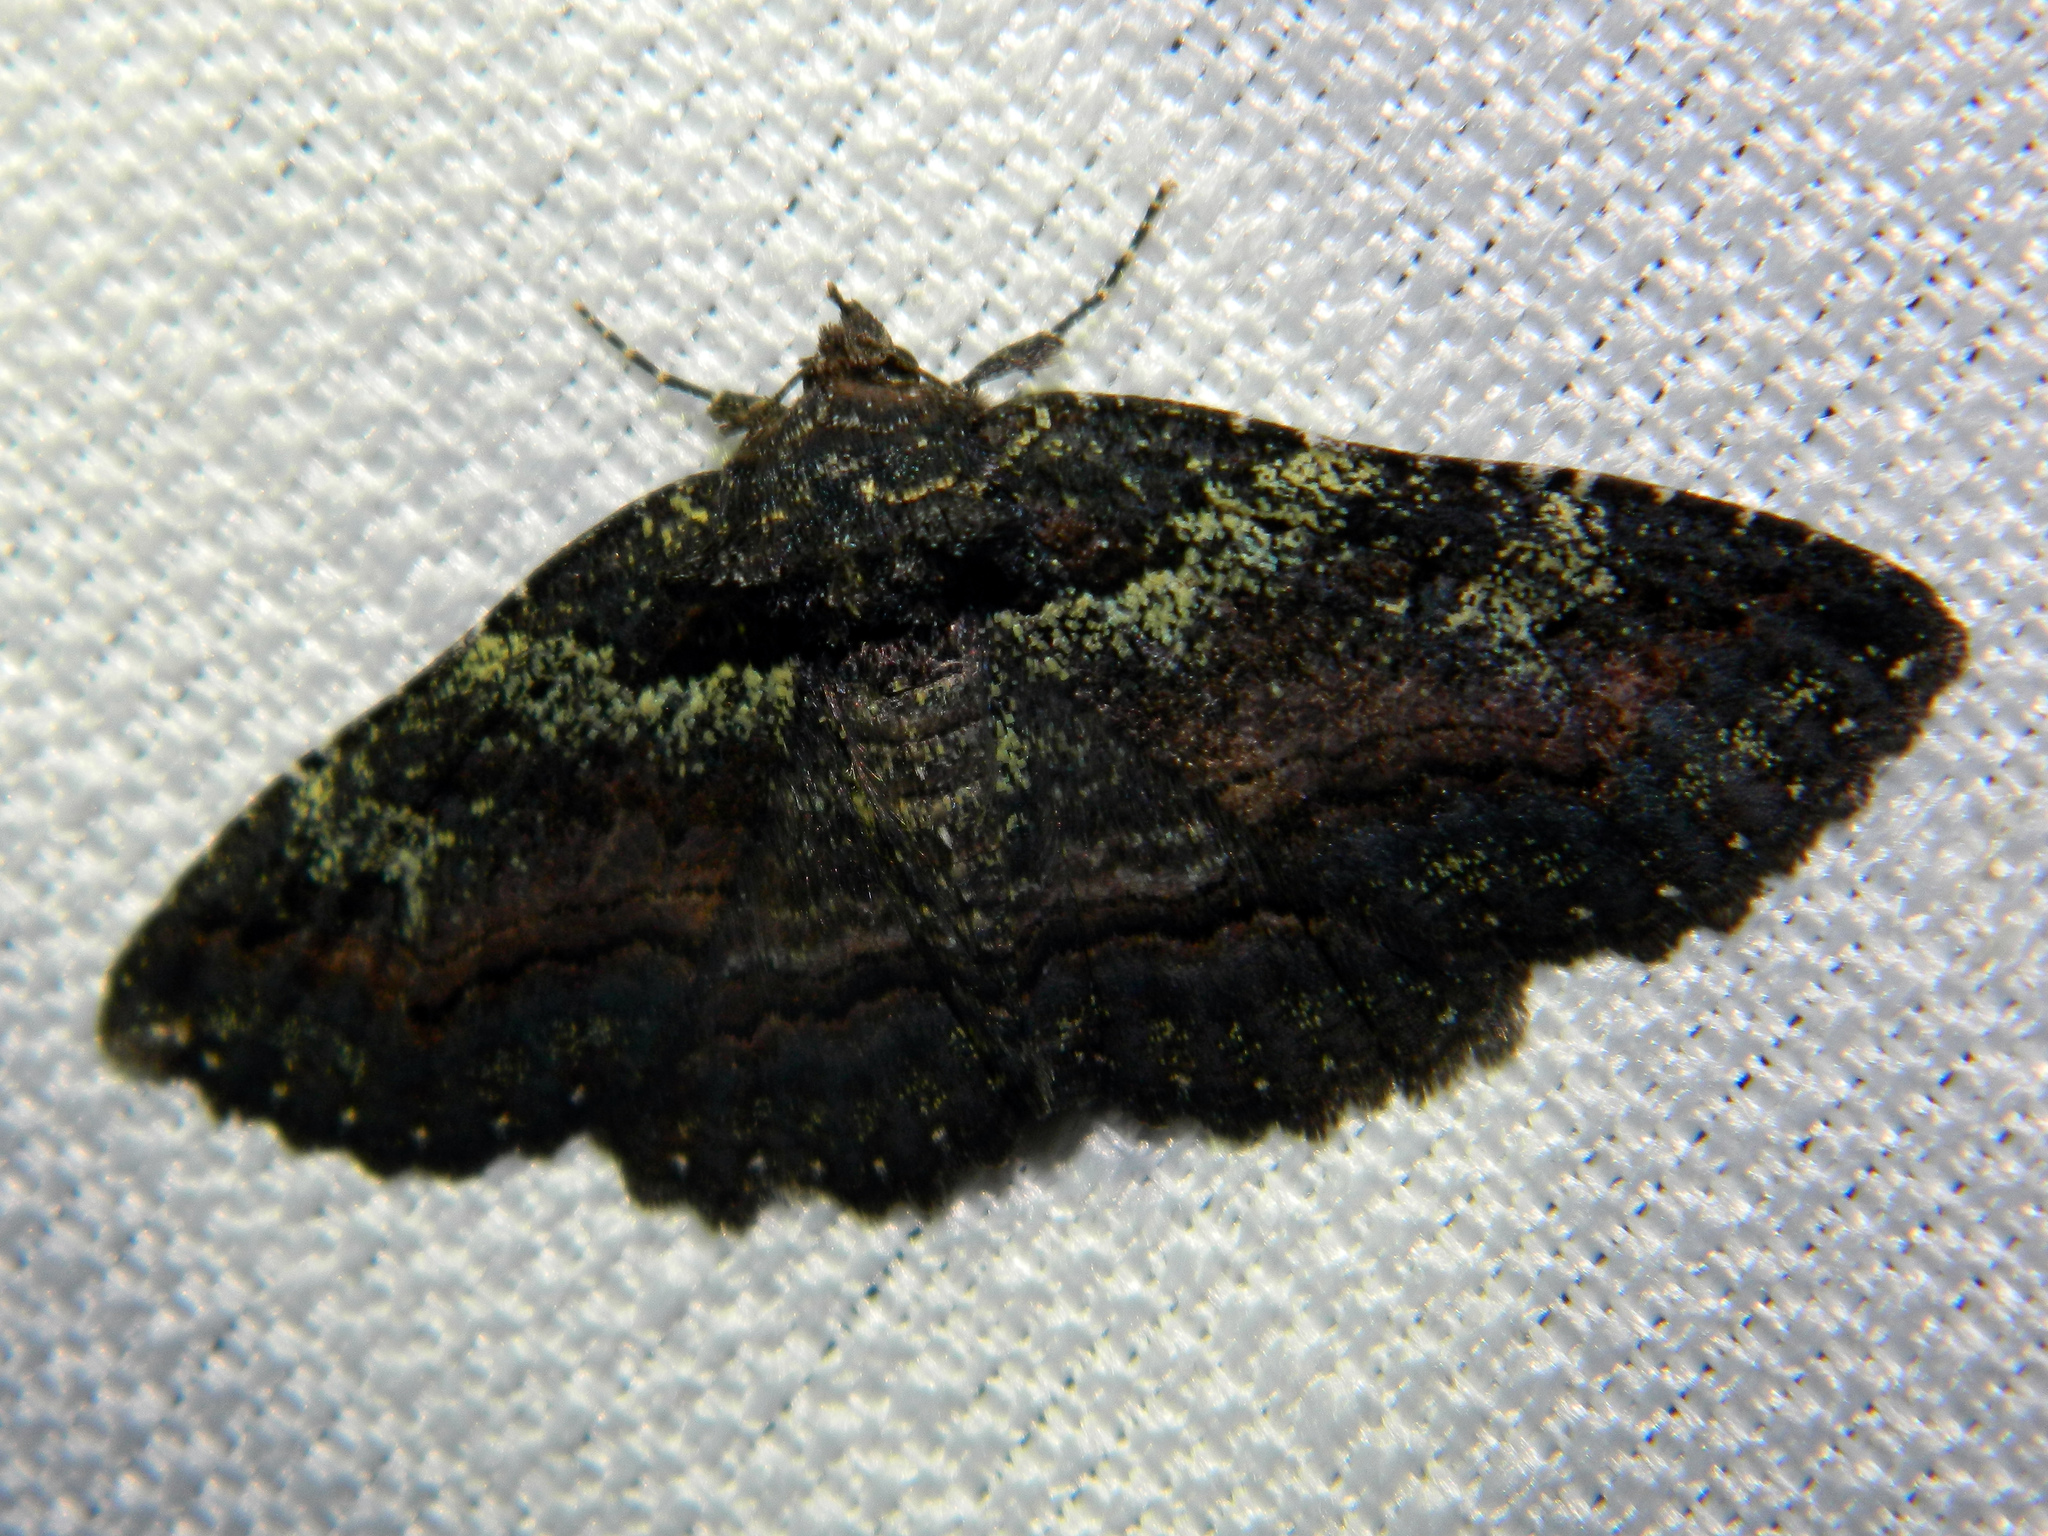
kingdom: Animalia
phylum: Arthropoda
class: Insecta
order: Lepidoptera
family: Erebidae
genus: Zale
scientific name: Zale aeruginosa
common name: Green-dusted zale moth
